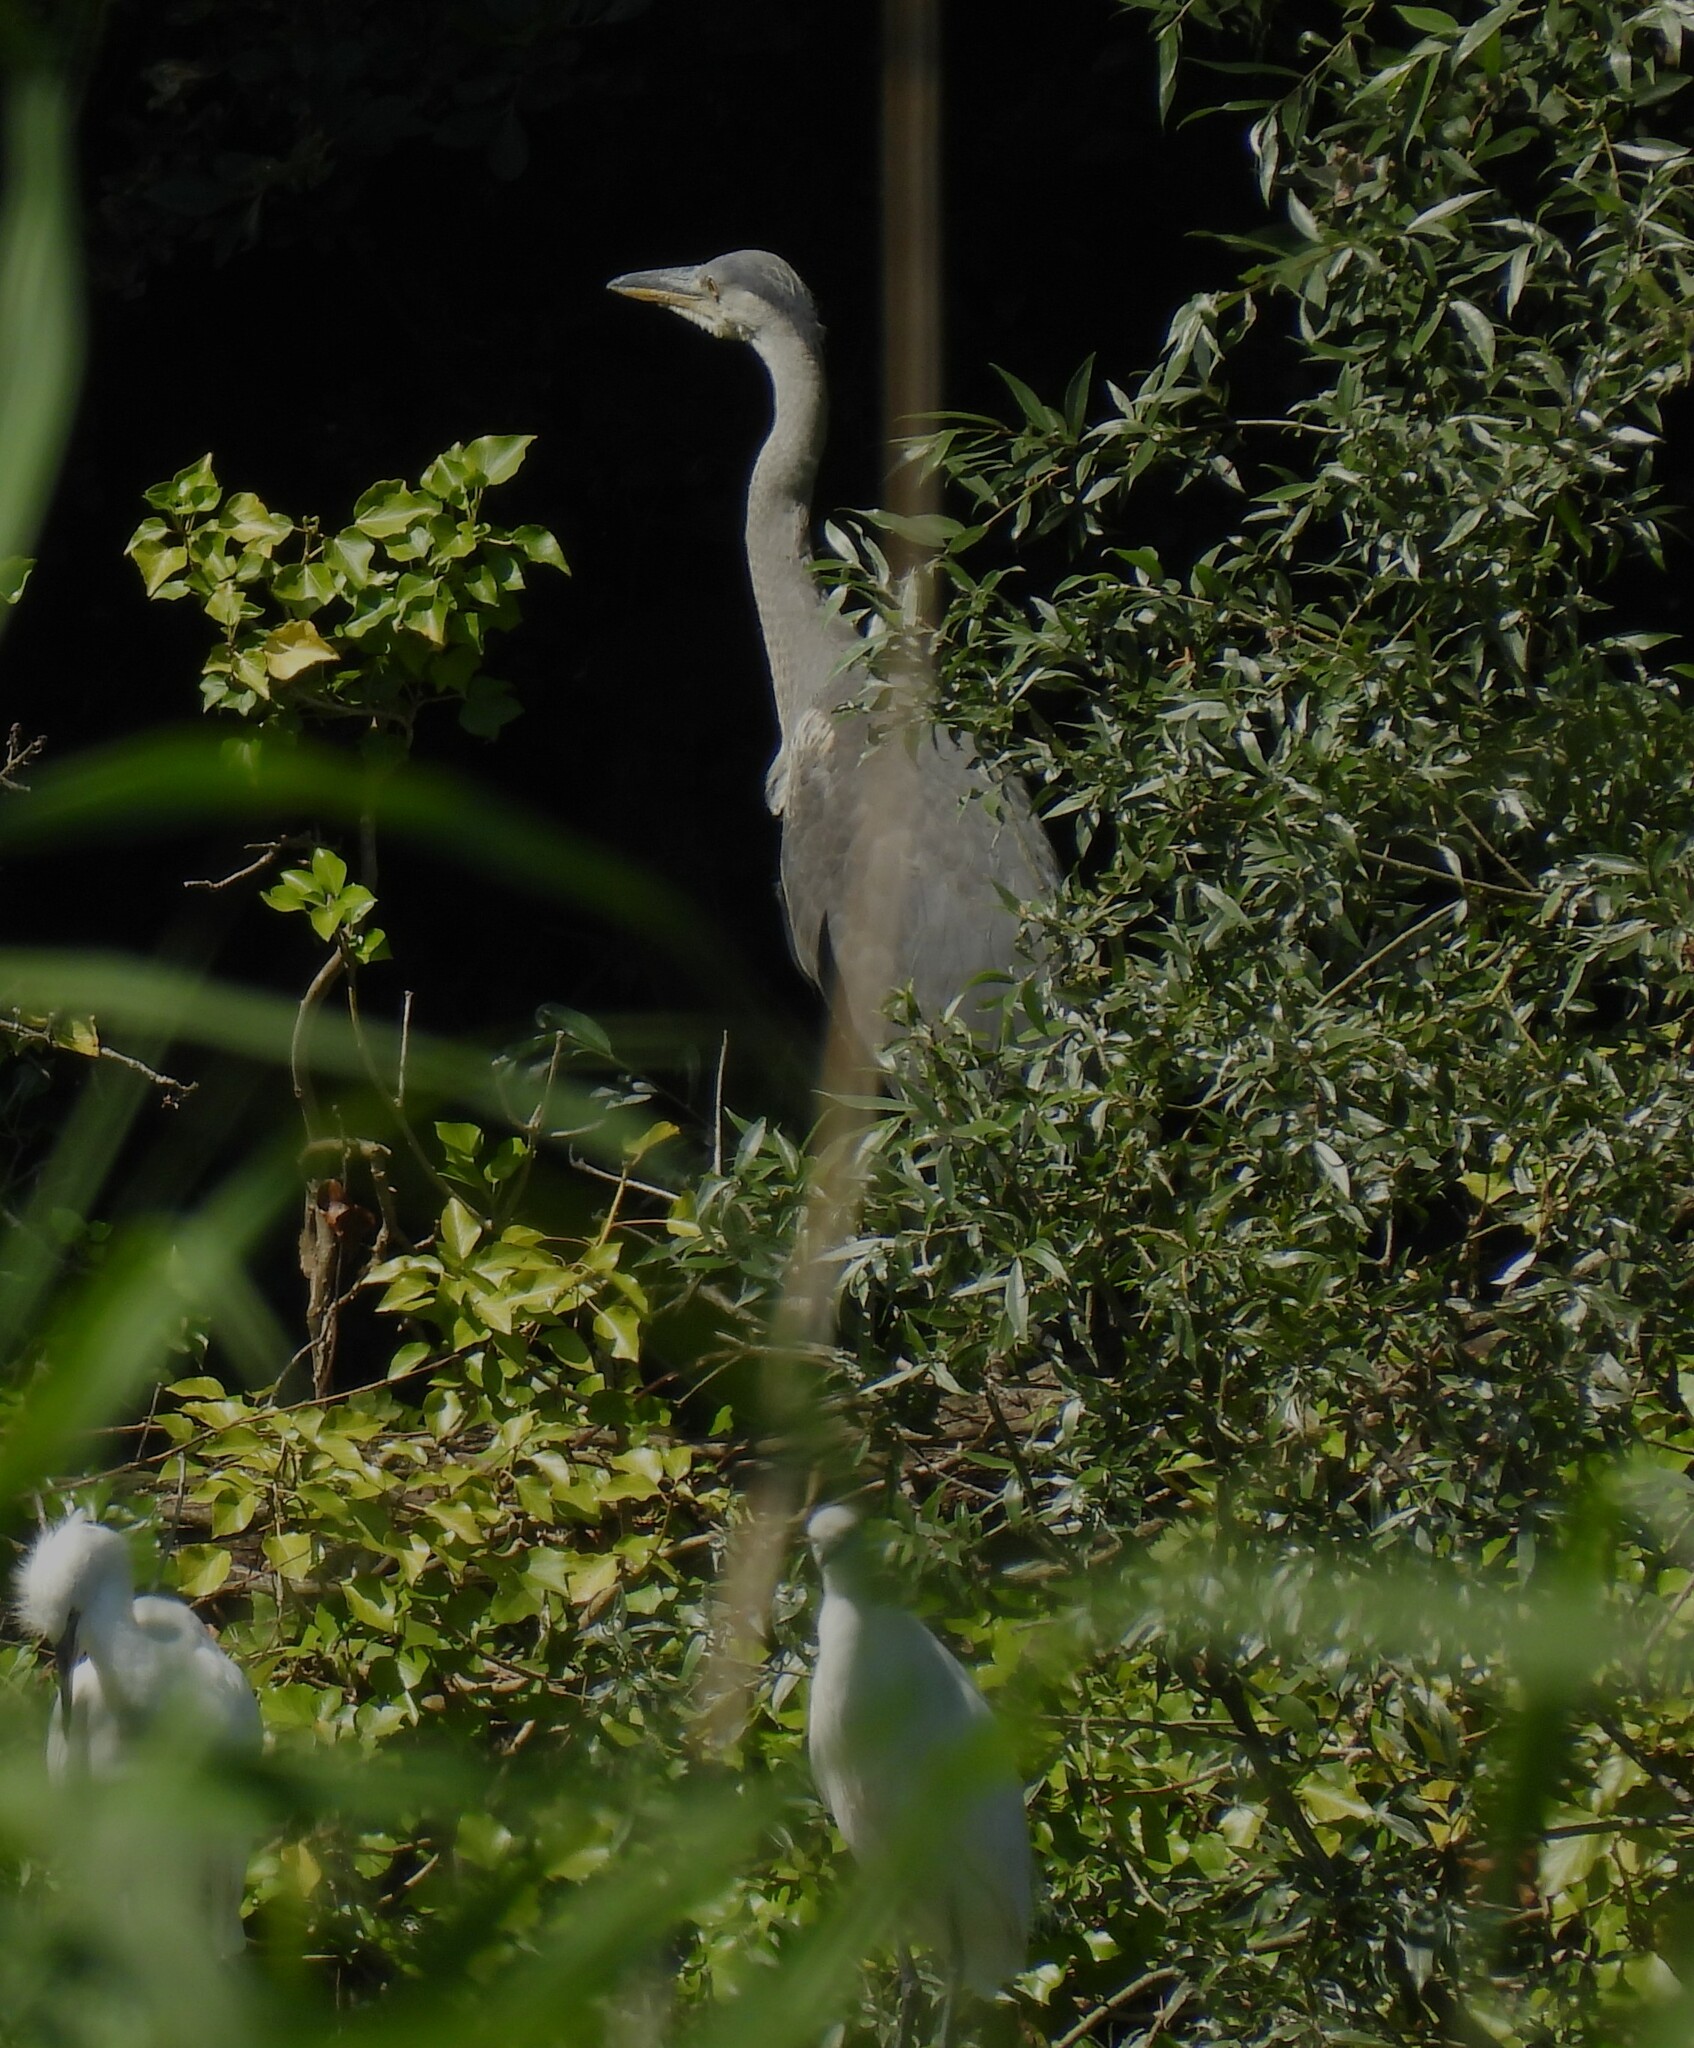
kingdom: Animalia
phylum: Chordata
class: Aves
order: Pelecaniformes
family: Ardeidae
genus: Ardea
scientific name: Ardea cinerea
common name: Grey heron
